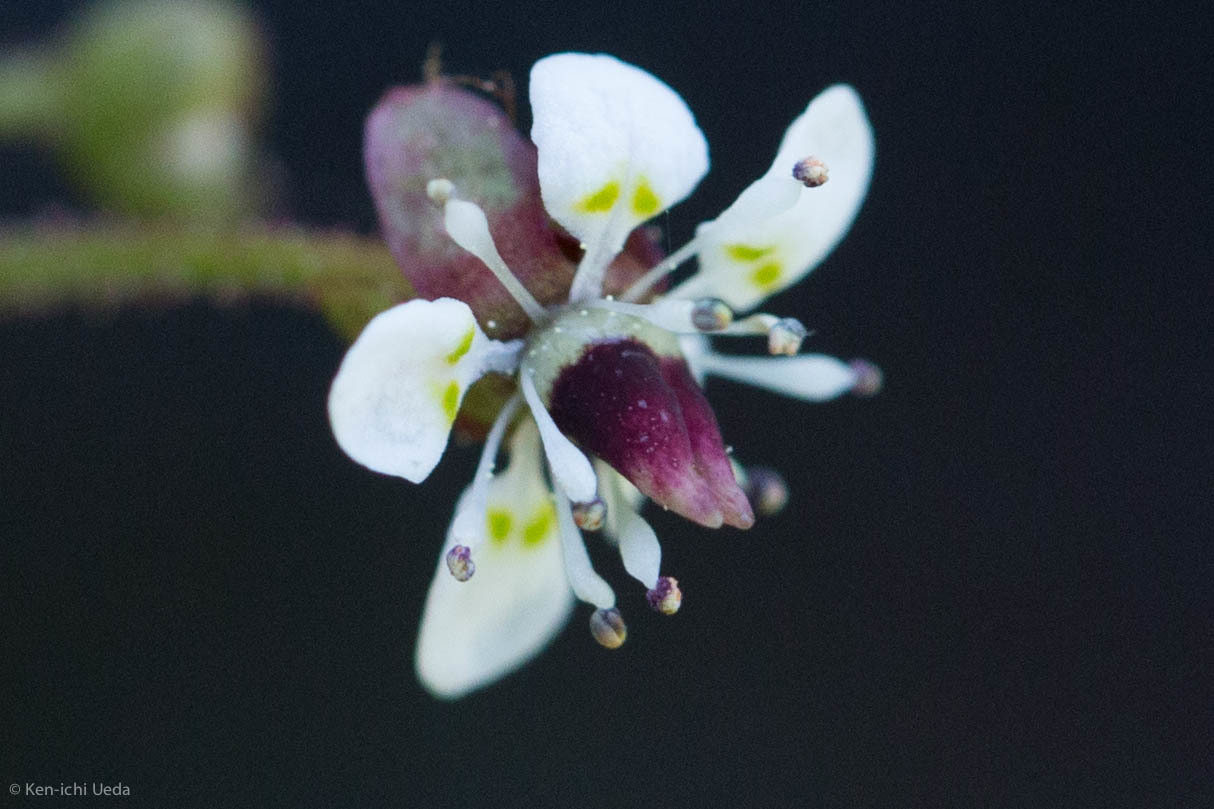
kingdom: Plantae
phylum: Tracheophyta
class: Magnoliopsida
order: Saxifragales
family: Saxifragaceae
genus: Micranthes
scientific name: Micranthes odontoloma
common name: Brook saxifrage
